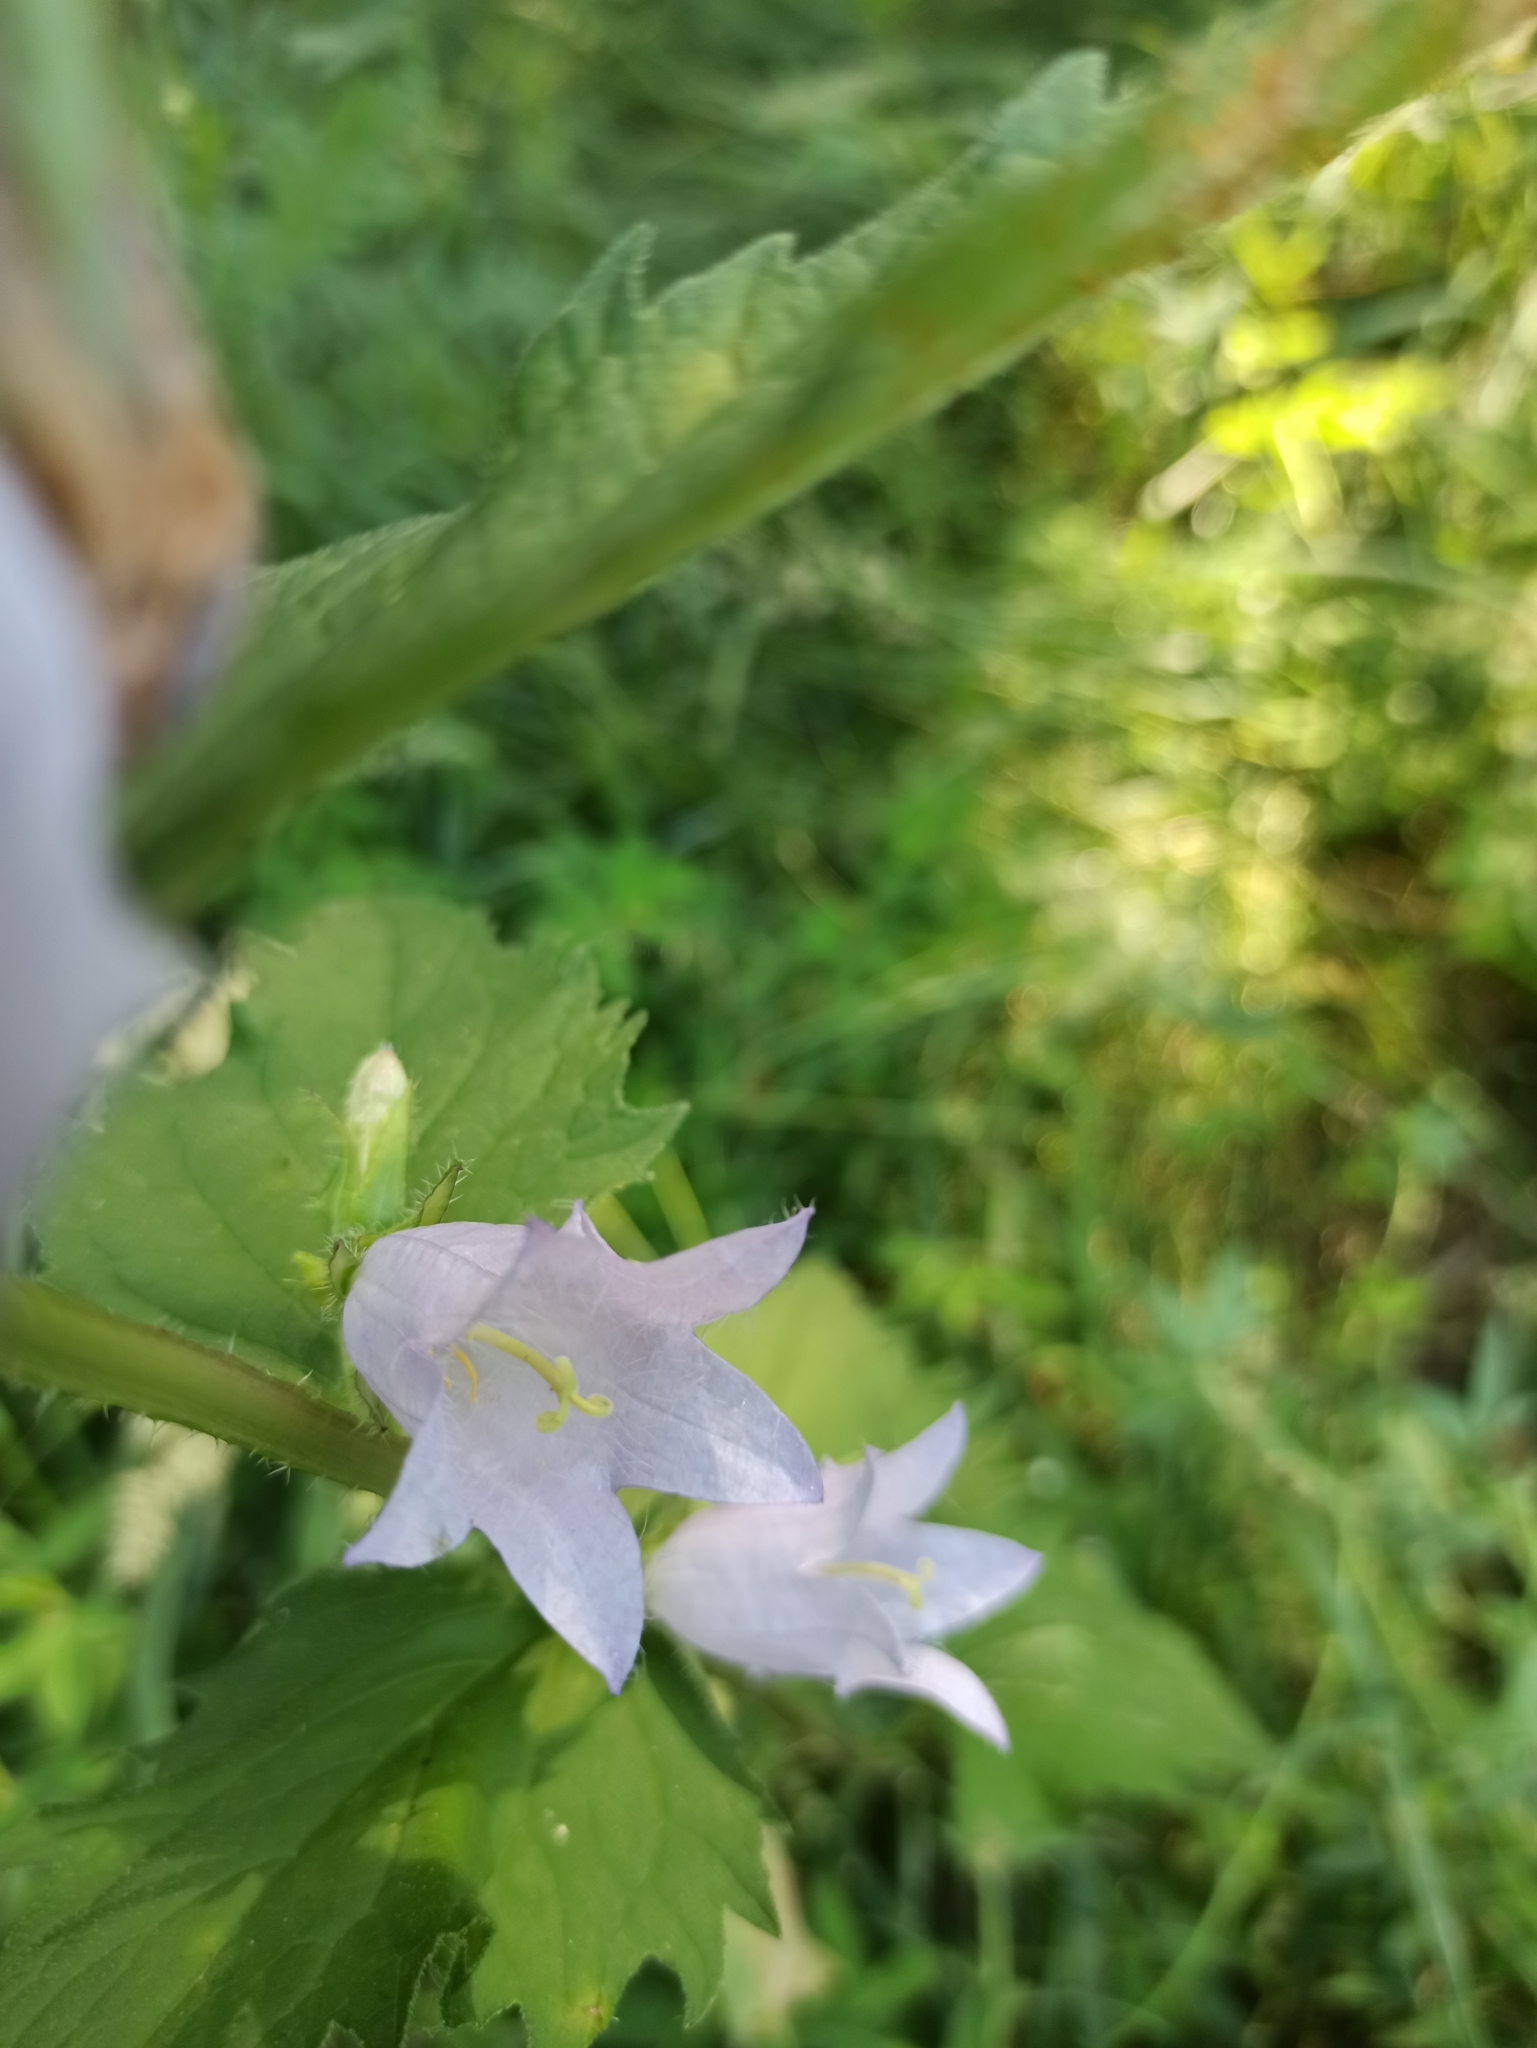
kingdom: Plantae
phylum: Tracheophyta
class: Magnoliopsida
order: Asterales
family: Campanulaceae
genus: Campanula
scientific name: Campanula trachelium
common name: Nettle-leaved bellflower
